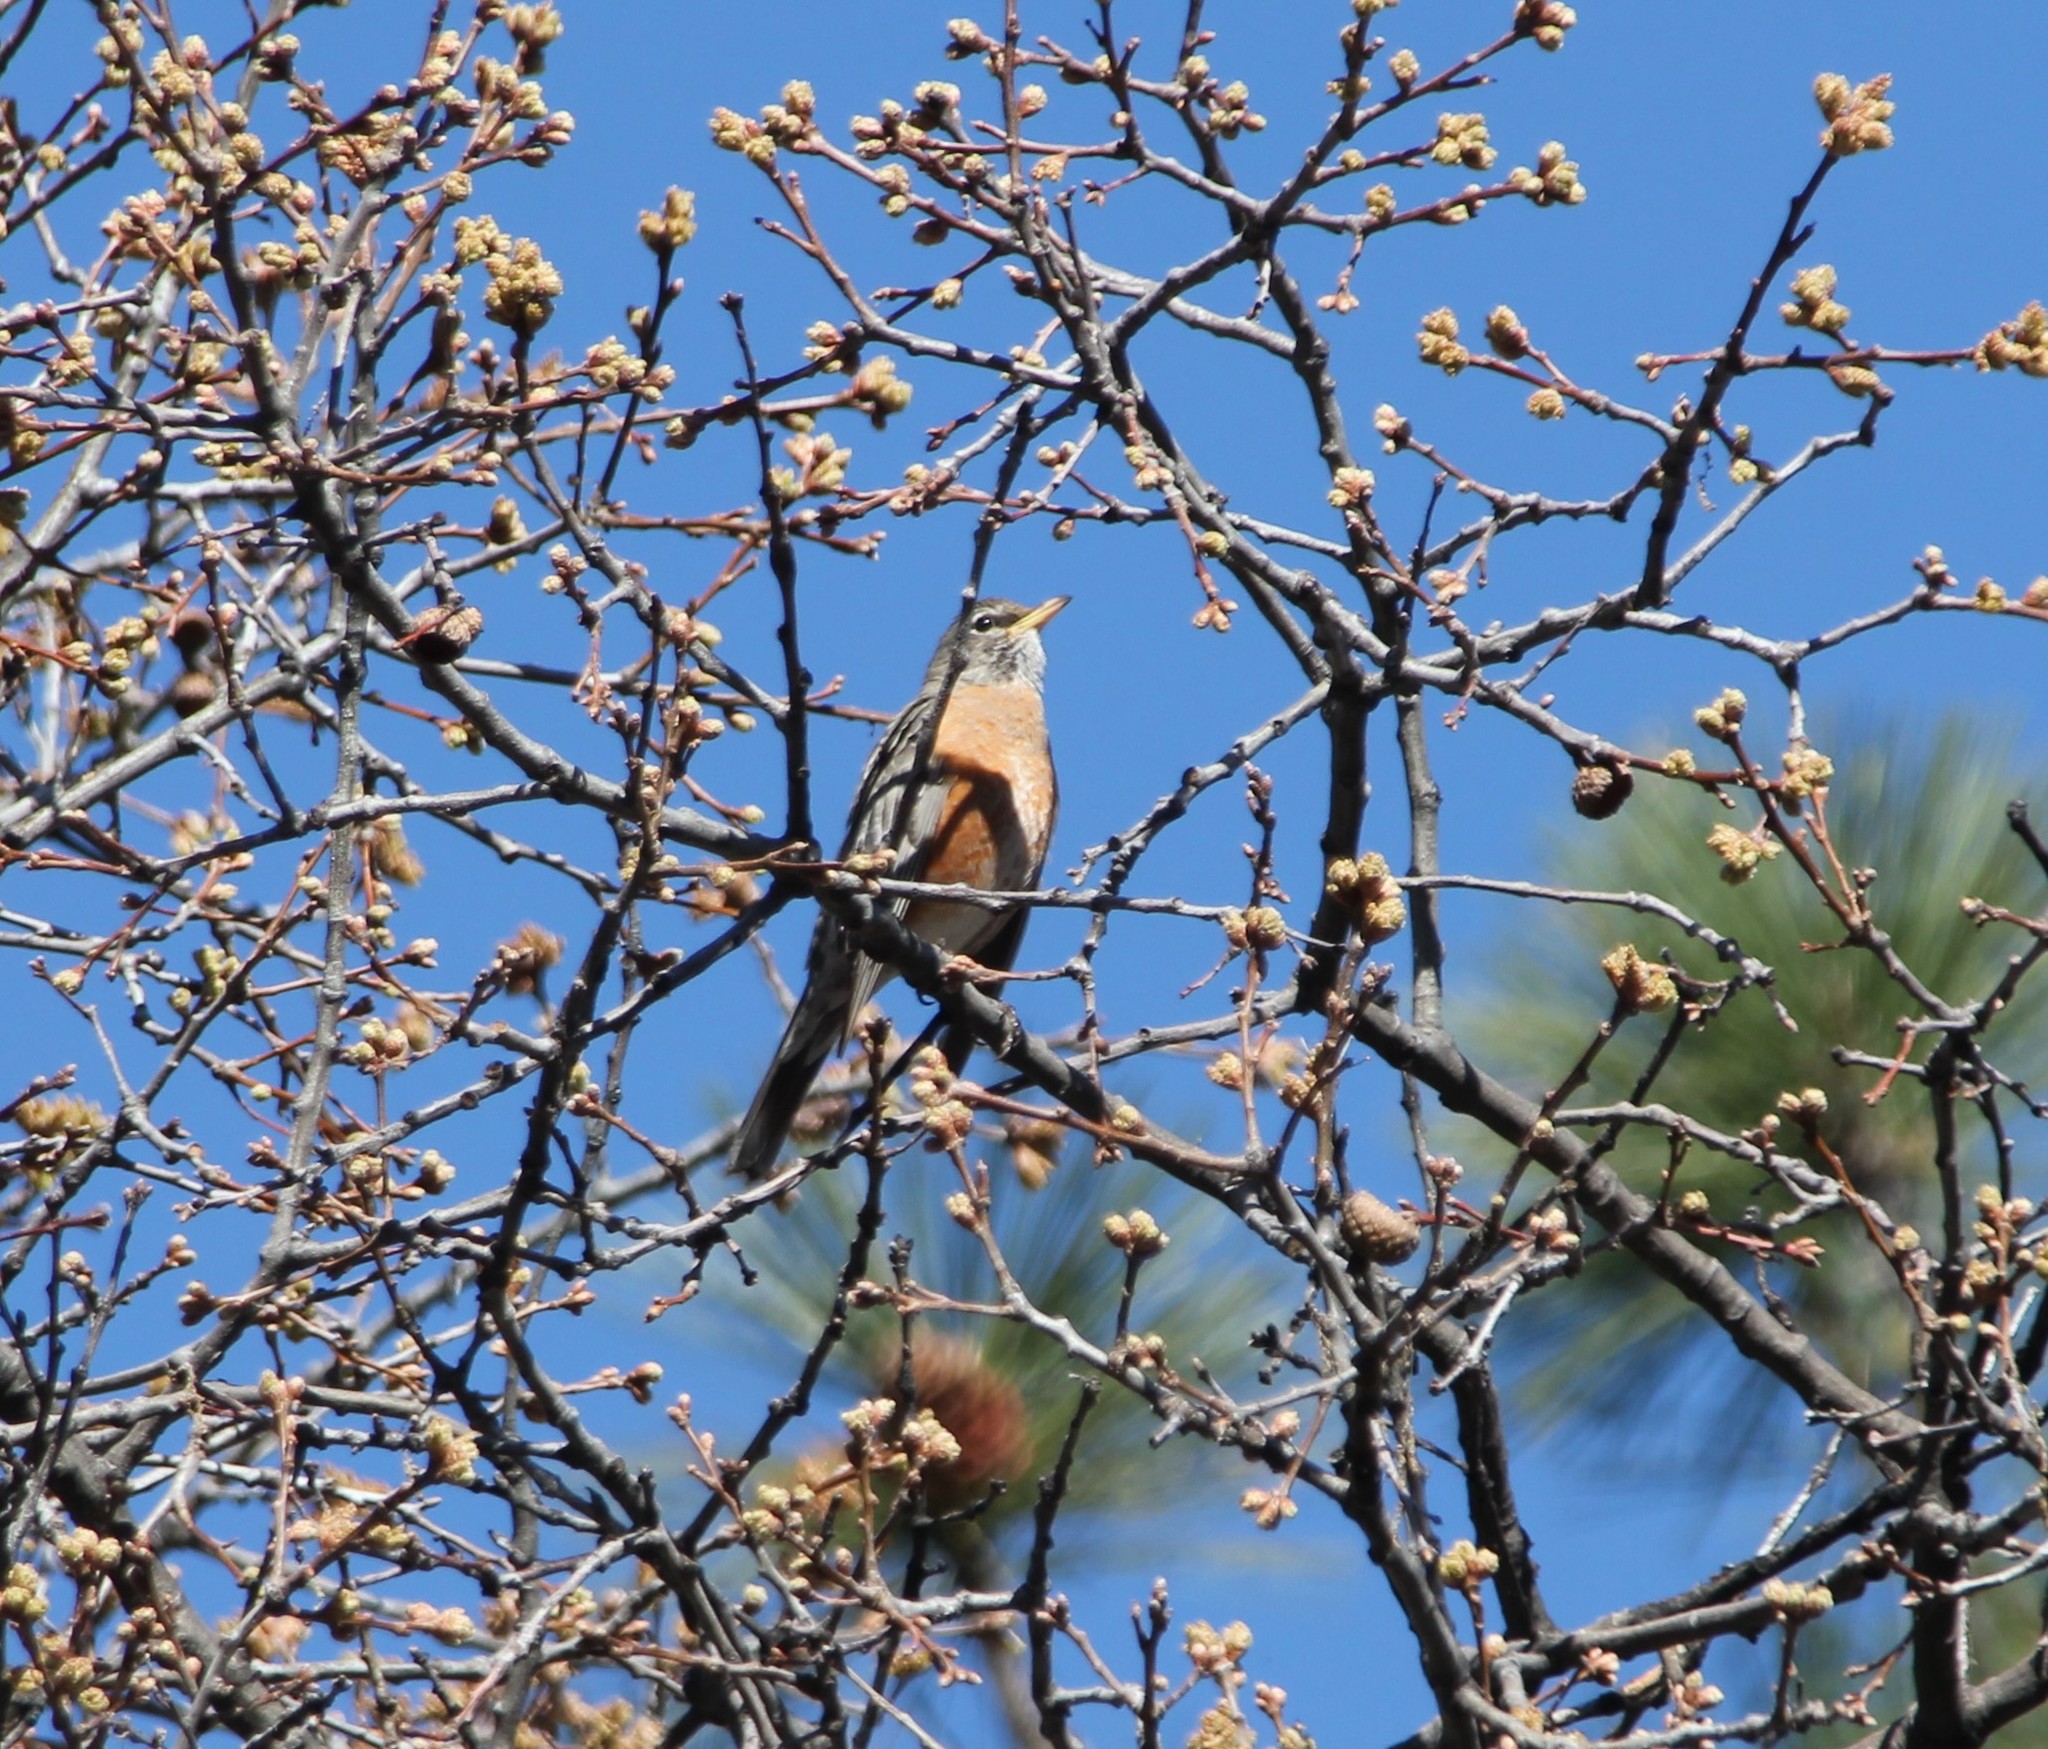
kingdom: Animalia
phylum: Chordata
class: Aves
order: Passeriformes
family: Turdidae
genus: Turdus
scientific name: Turdus migratorius
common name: American robin
